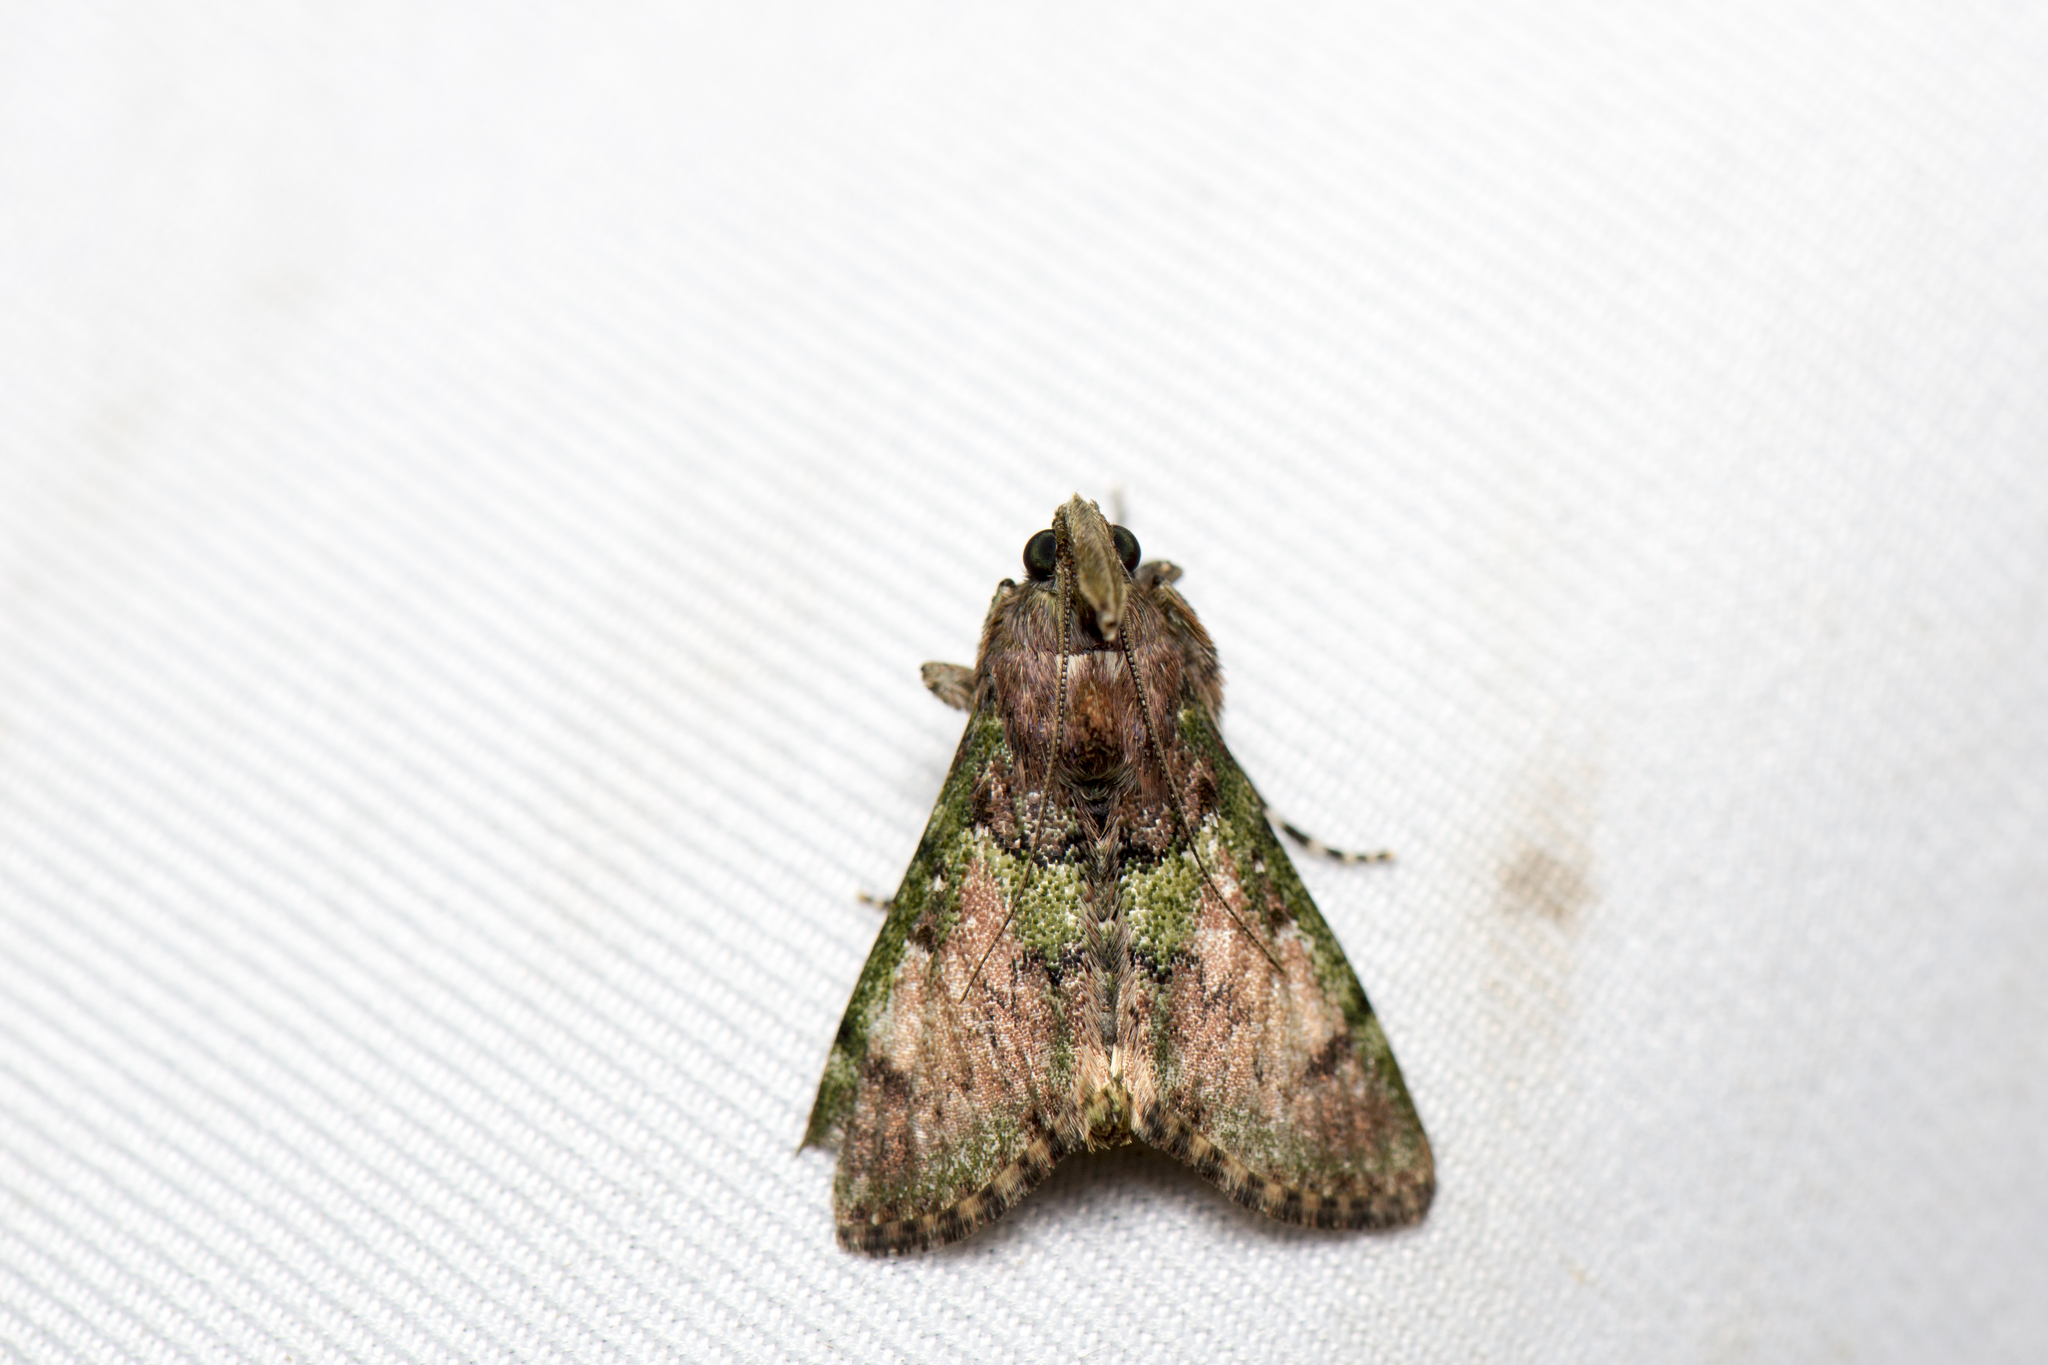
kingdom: Animalia
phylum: Arthropoda
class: Insecta
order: Lepidoptera
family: Pyralidae
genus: Teliphasa
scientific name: Teliphasa nubilosa
